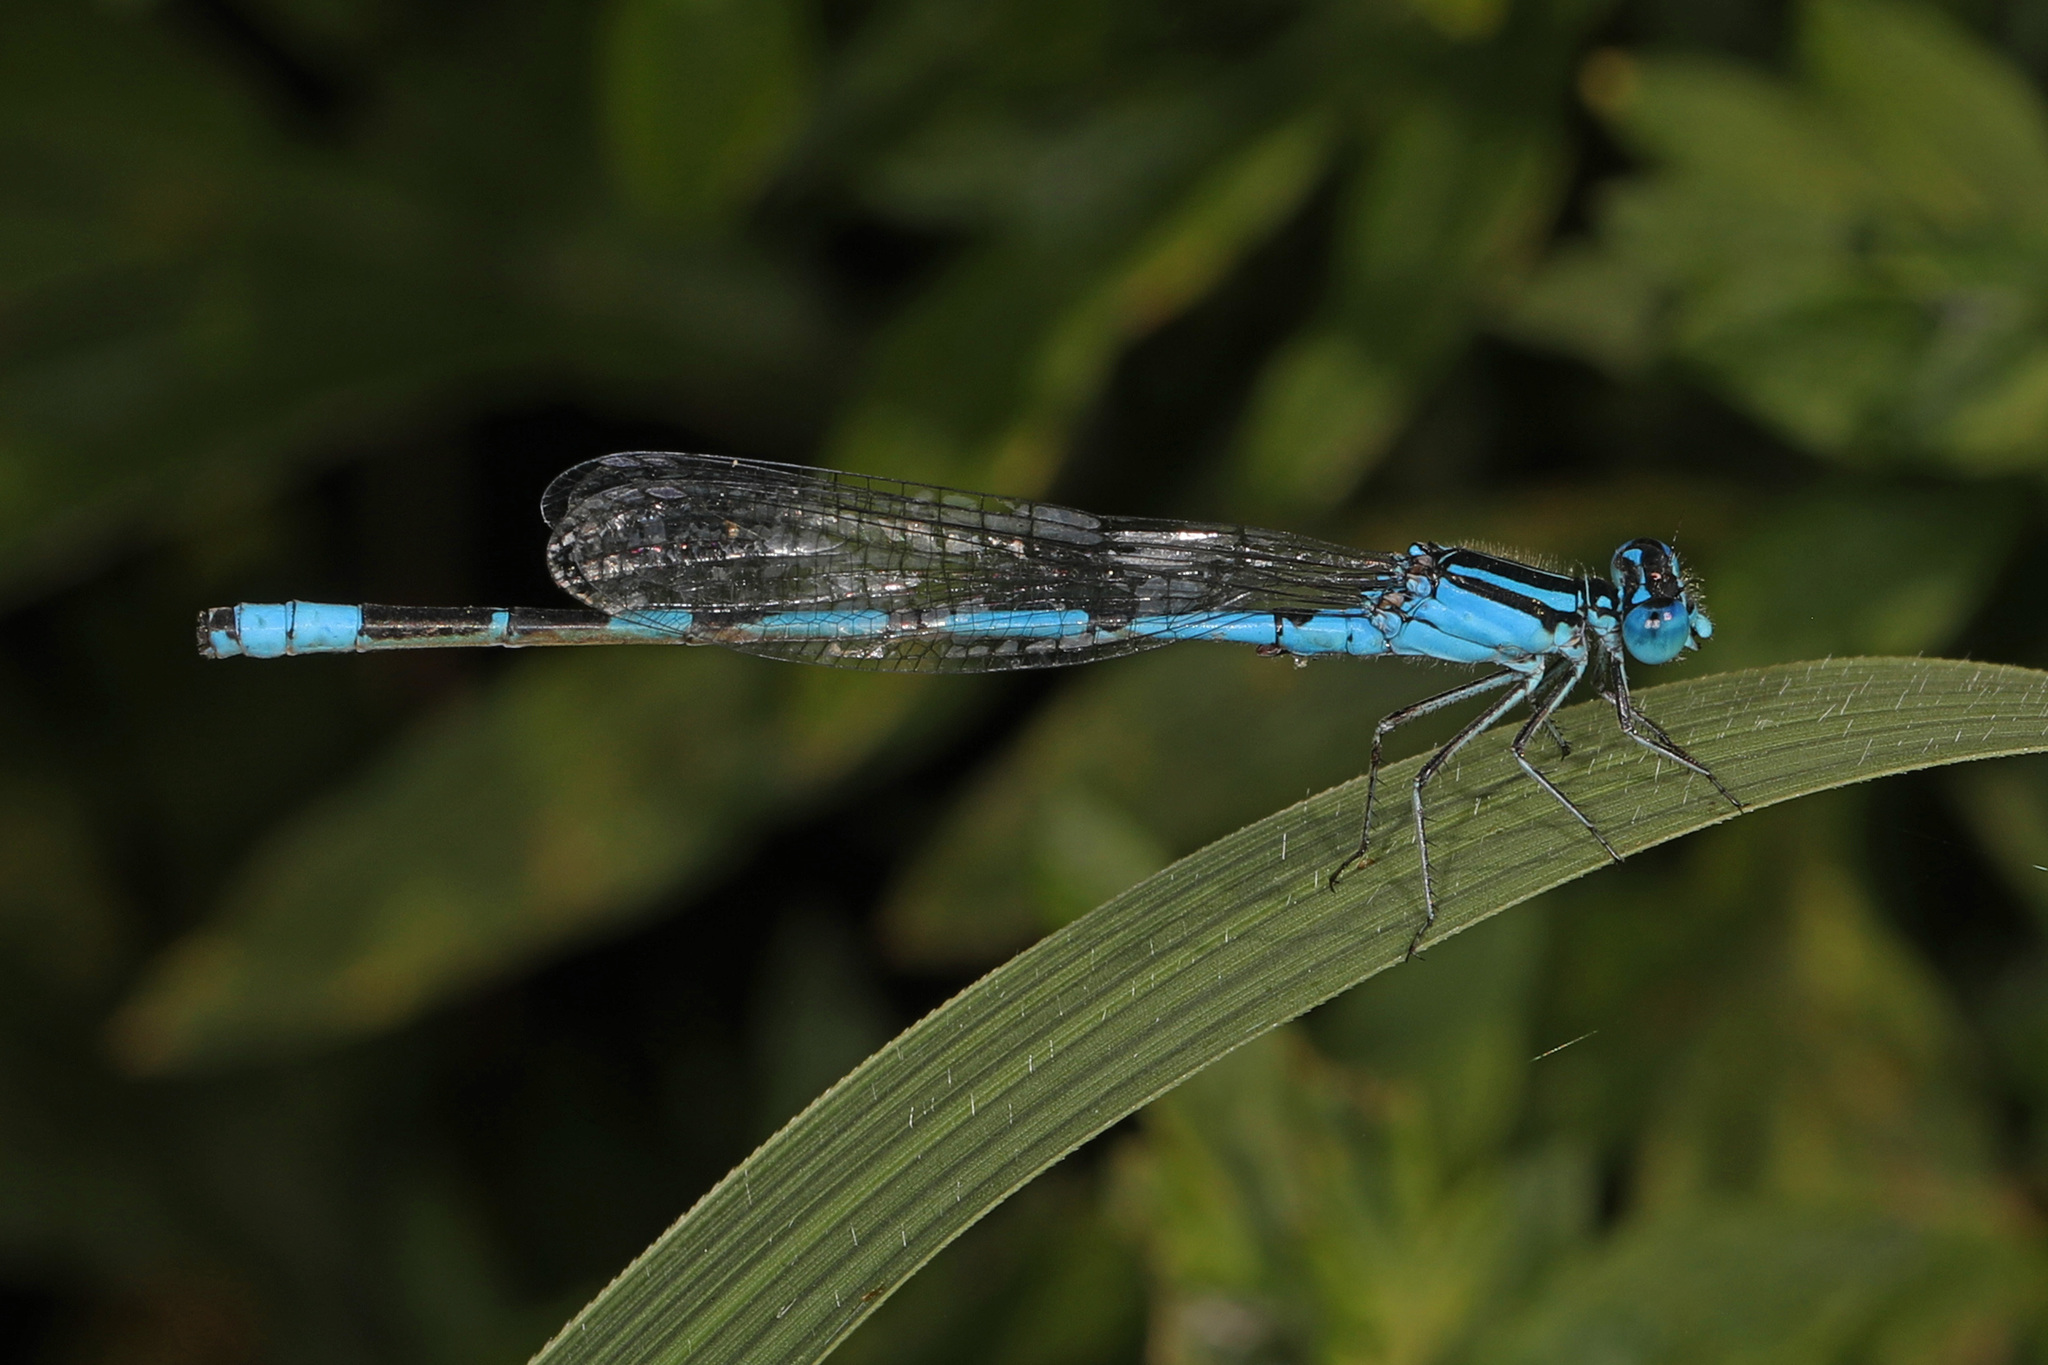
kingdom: Animalia
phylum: Arthropoda
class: Insecta
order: Odonata
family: Coenagrionidae
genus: Enallagma
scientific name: Enallagma durum
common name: Big bluet
